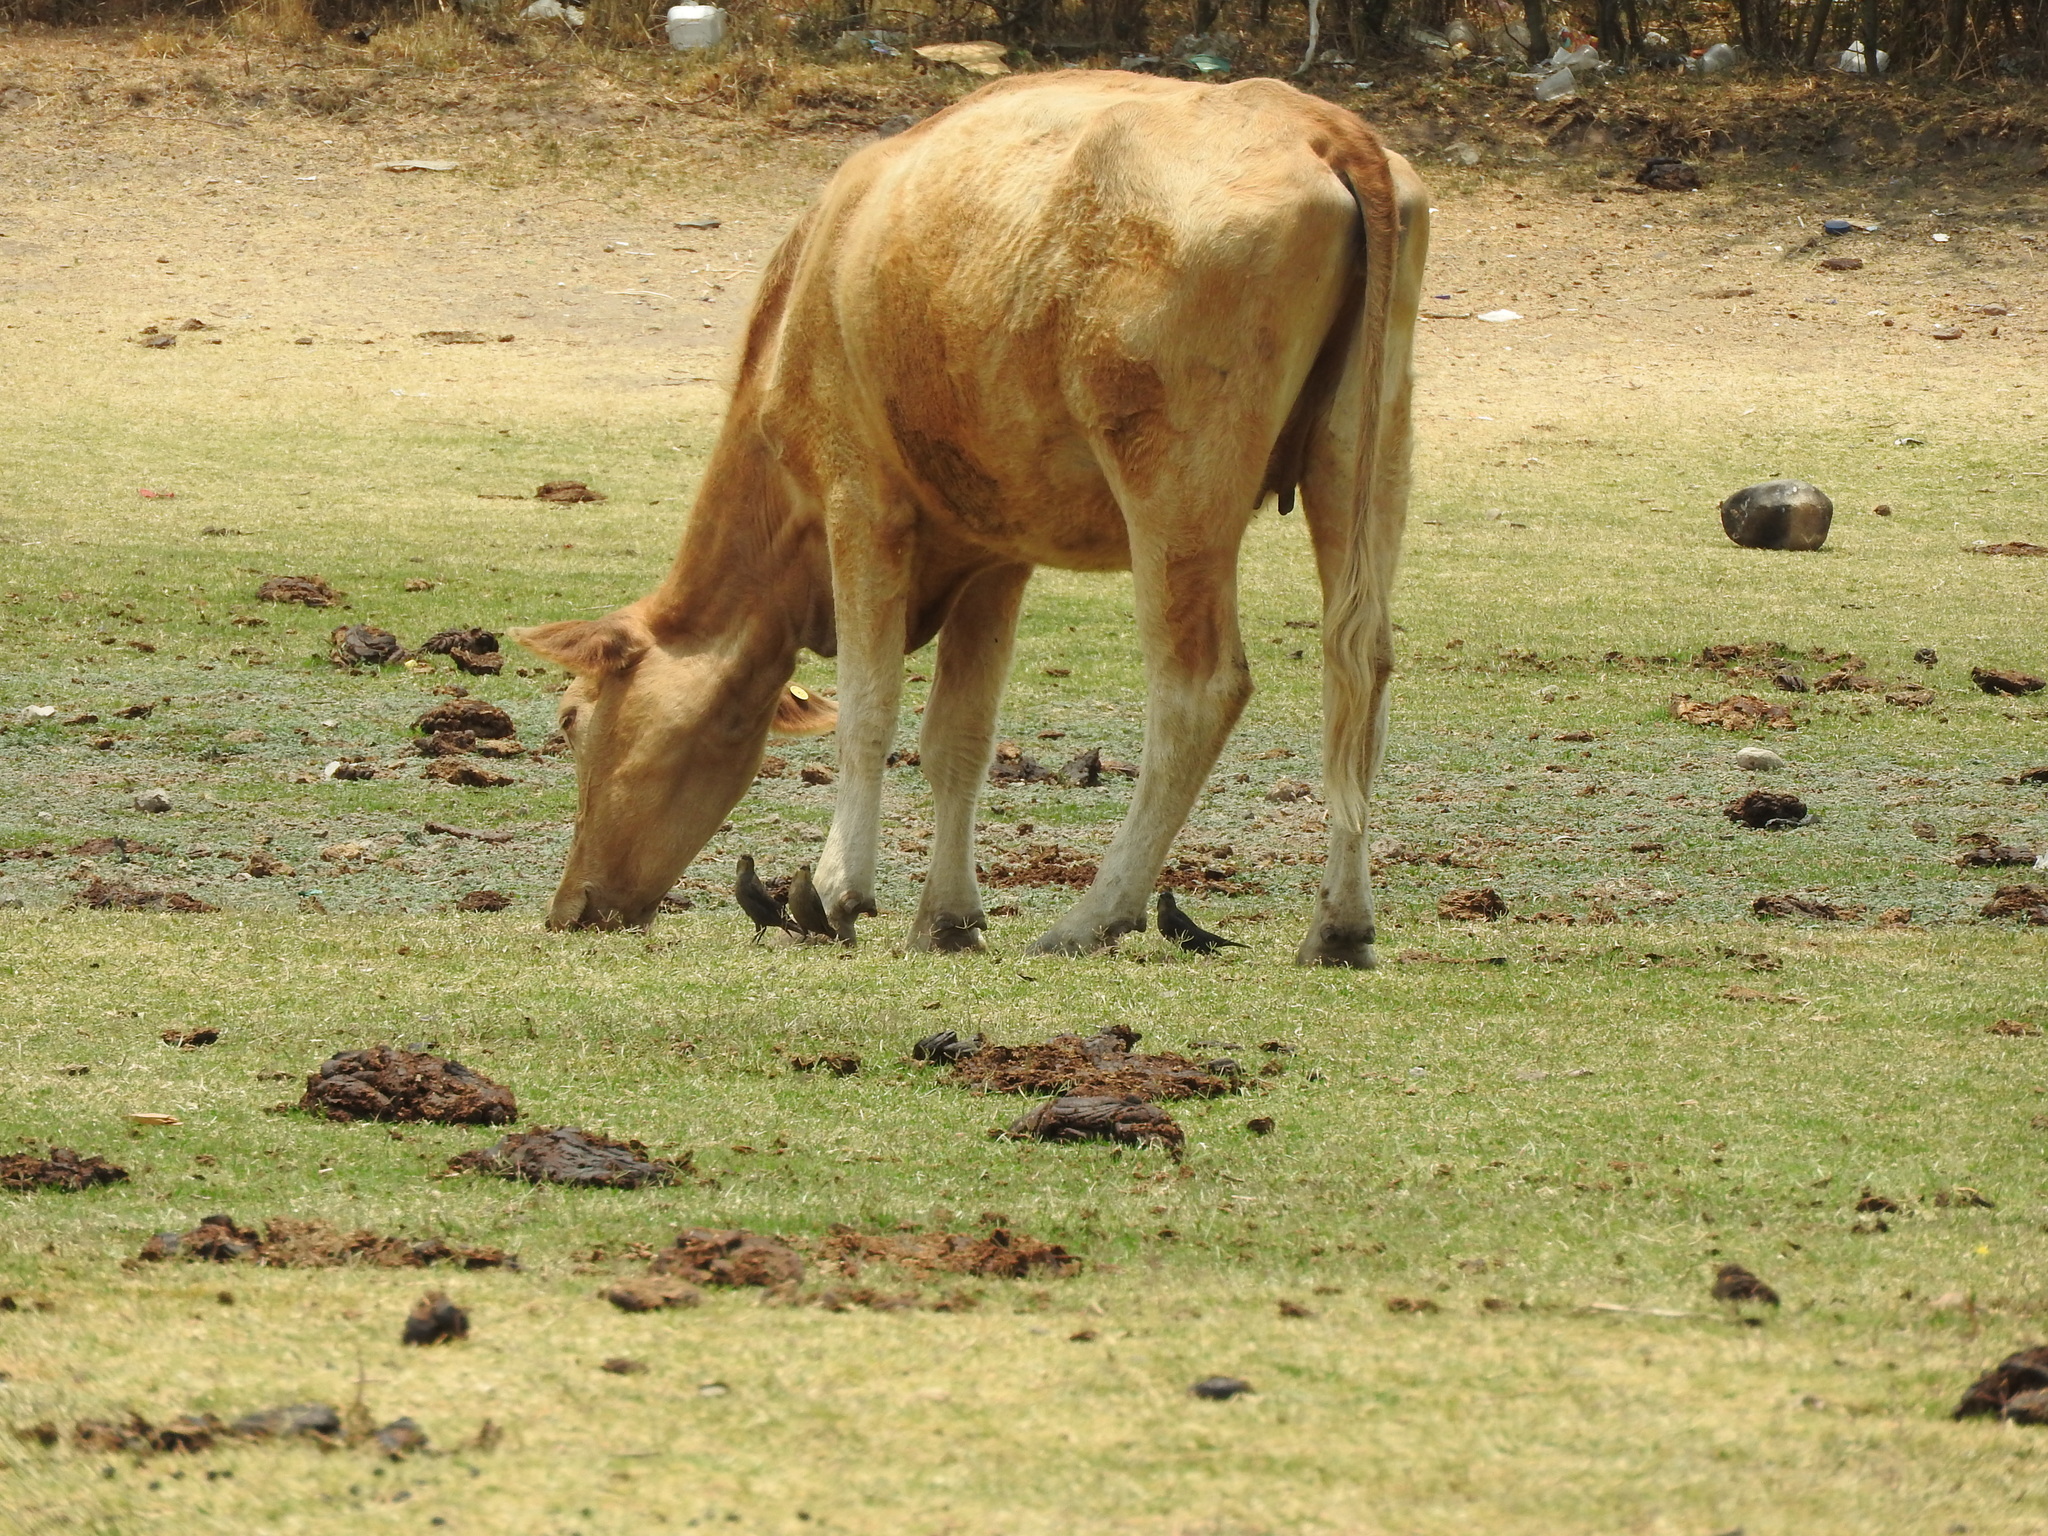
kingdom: Animalia
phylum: Chordata
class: Aves
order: Passeriformes
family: Icteridae
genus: Molothrus
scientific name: Molothrus ater
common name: Brown-headed cowbird
